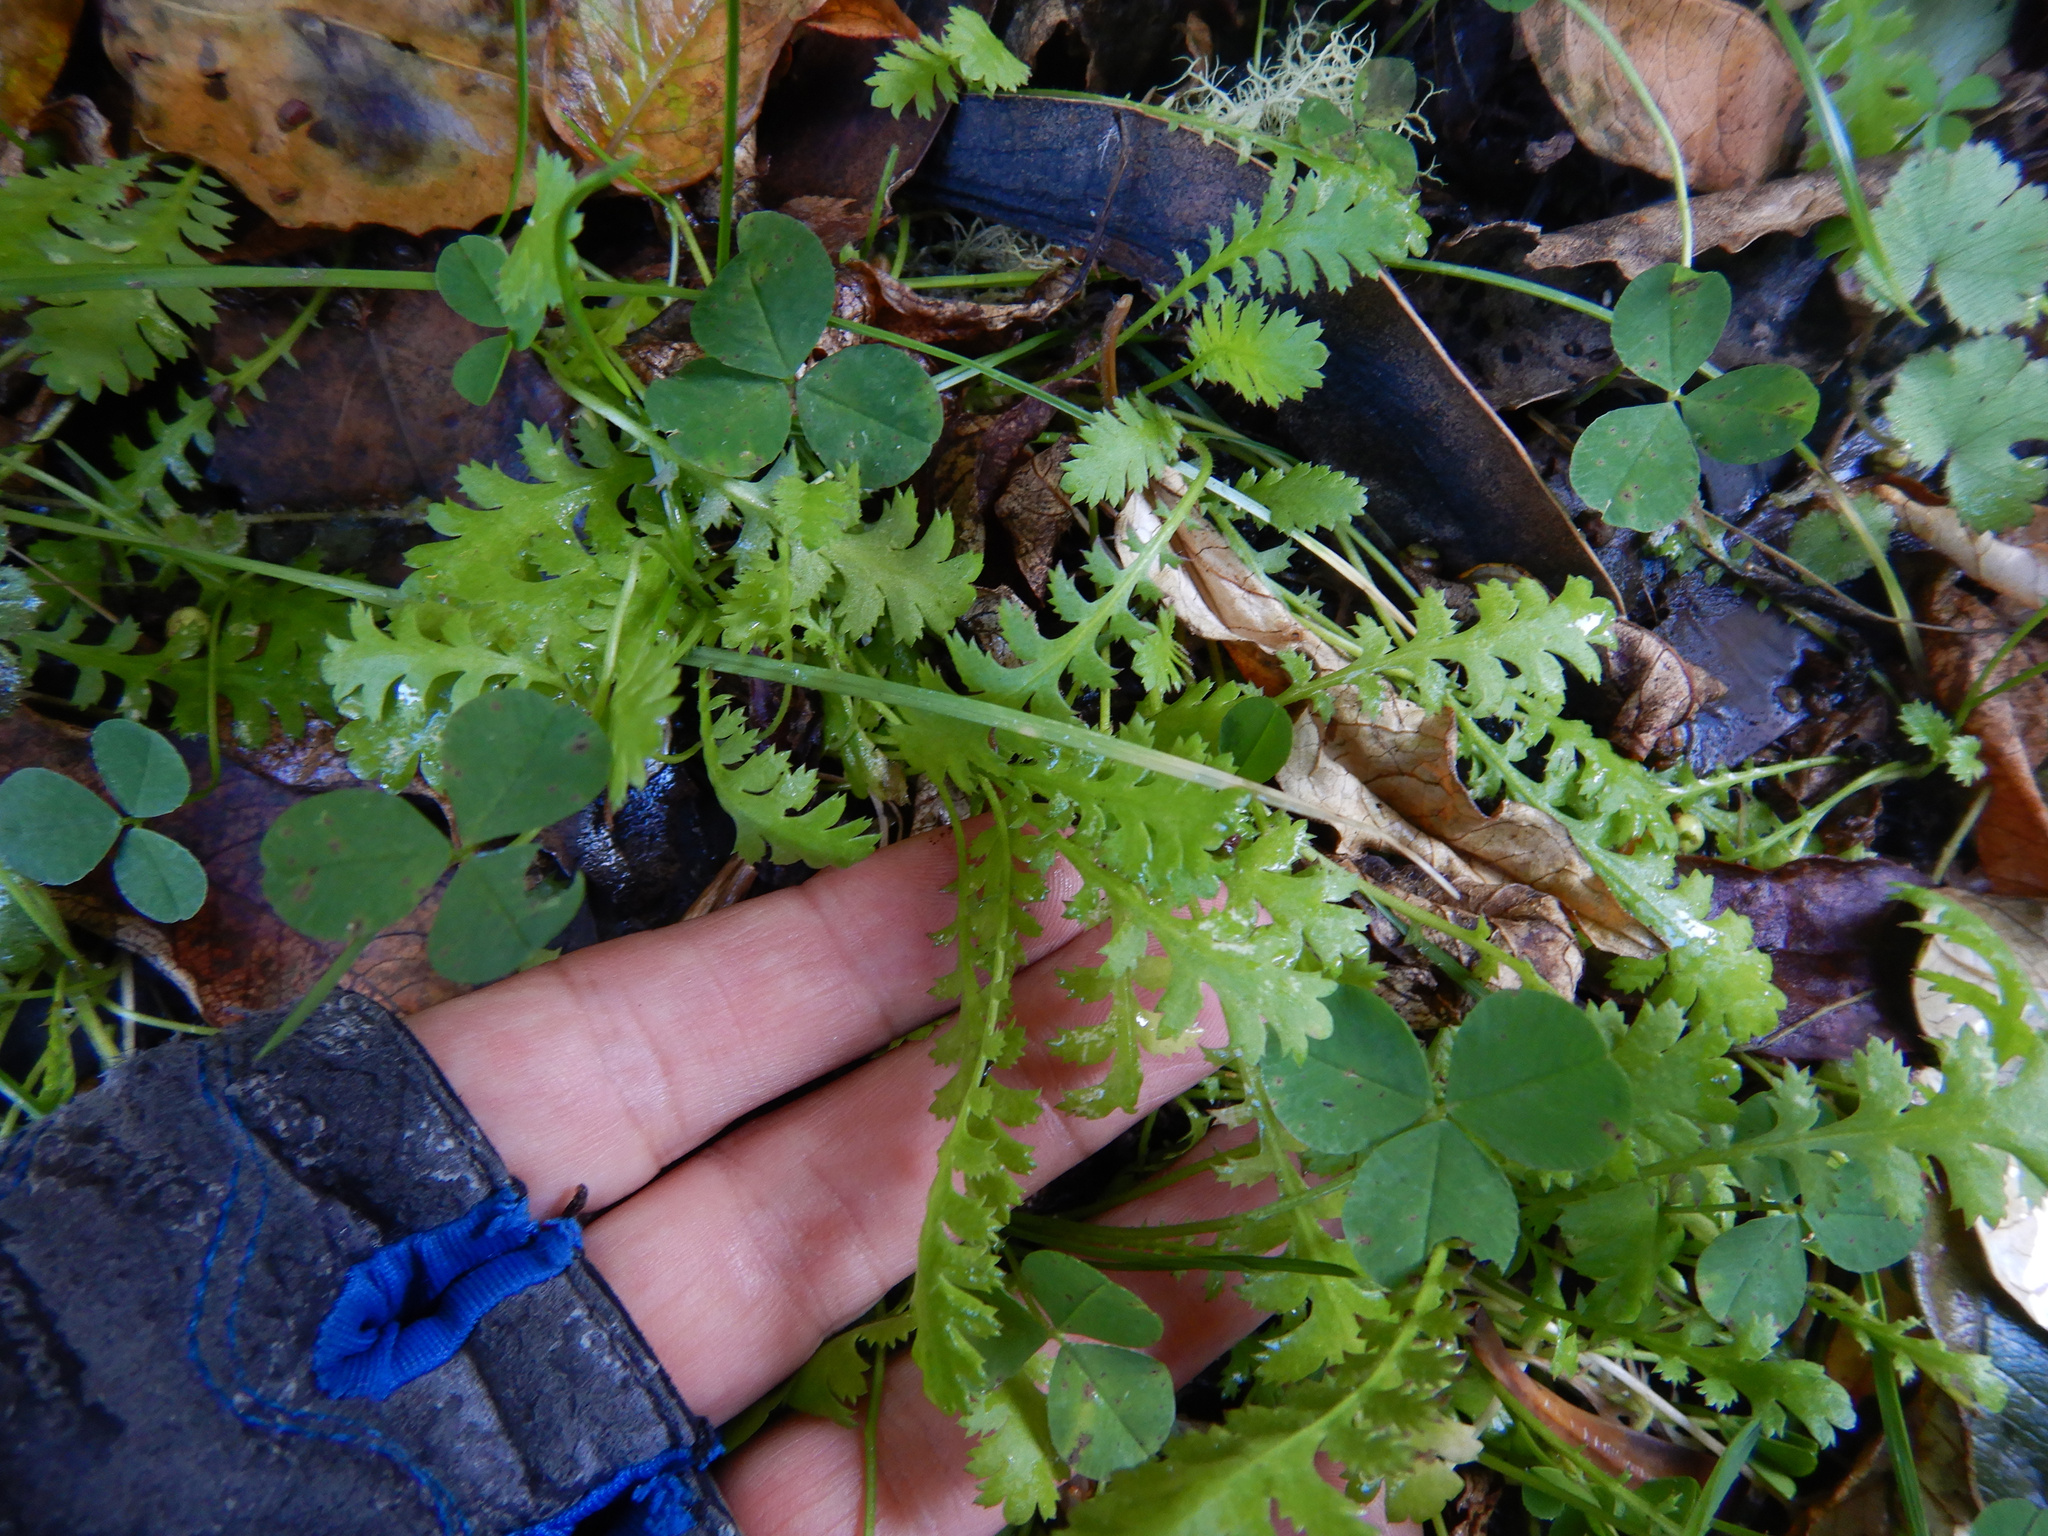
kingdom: Plantae
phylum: Tracheophyta
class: Magnoliopsida
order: Asterales
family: Asteraceae
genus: Leptinella
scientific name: Leptinella dioica
